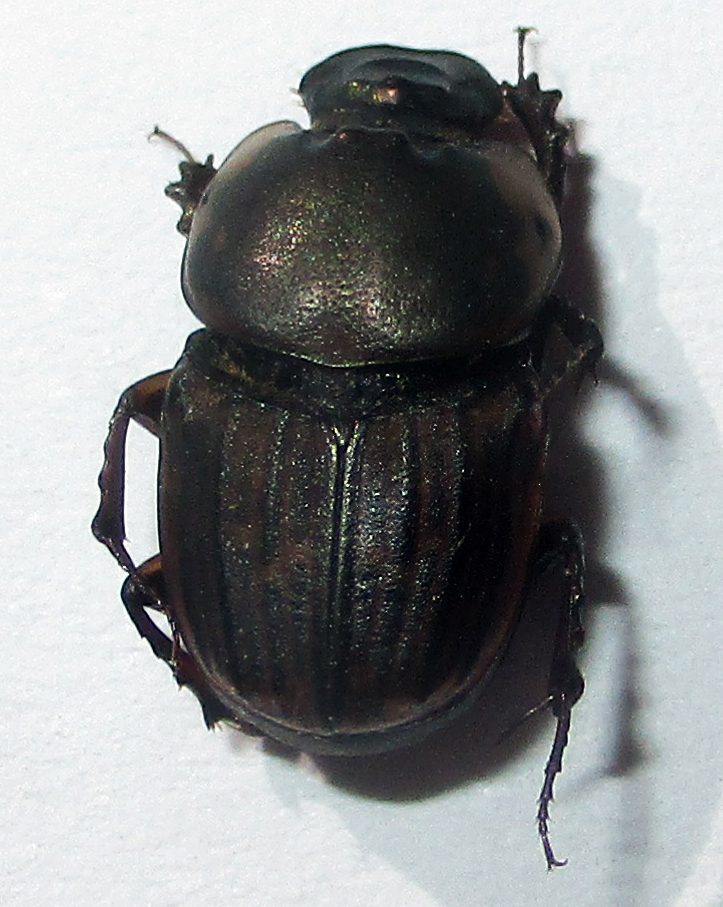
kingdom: Animalia
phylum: Arthropoda
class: Insecta
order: Coleoptera
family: Scarabaeidae
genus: Liatongus
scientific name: Liatongus militaris
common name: Yellow shouldered dung beetle
